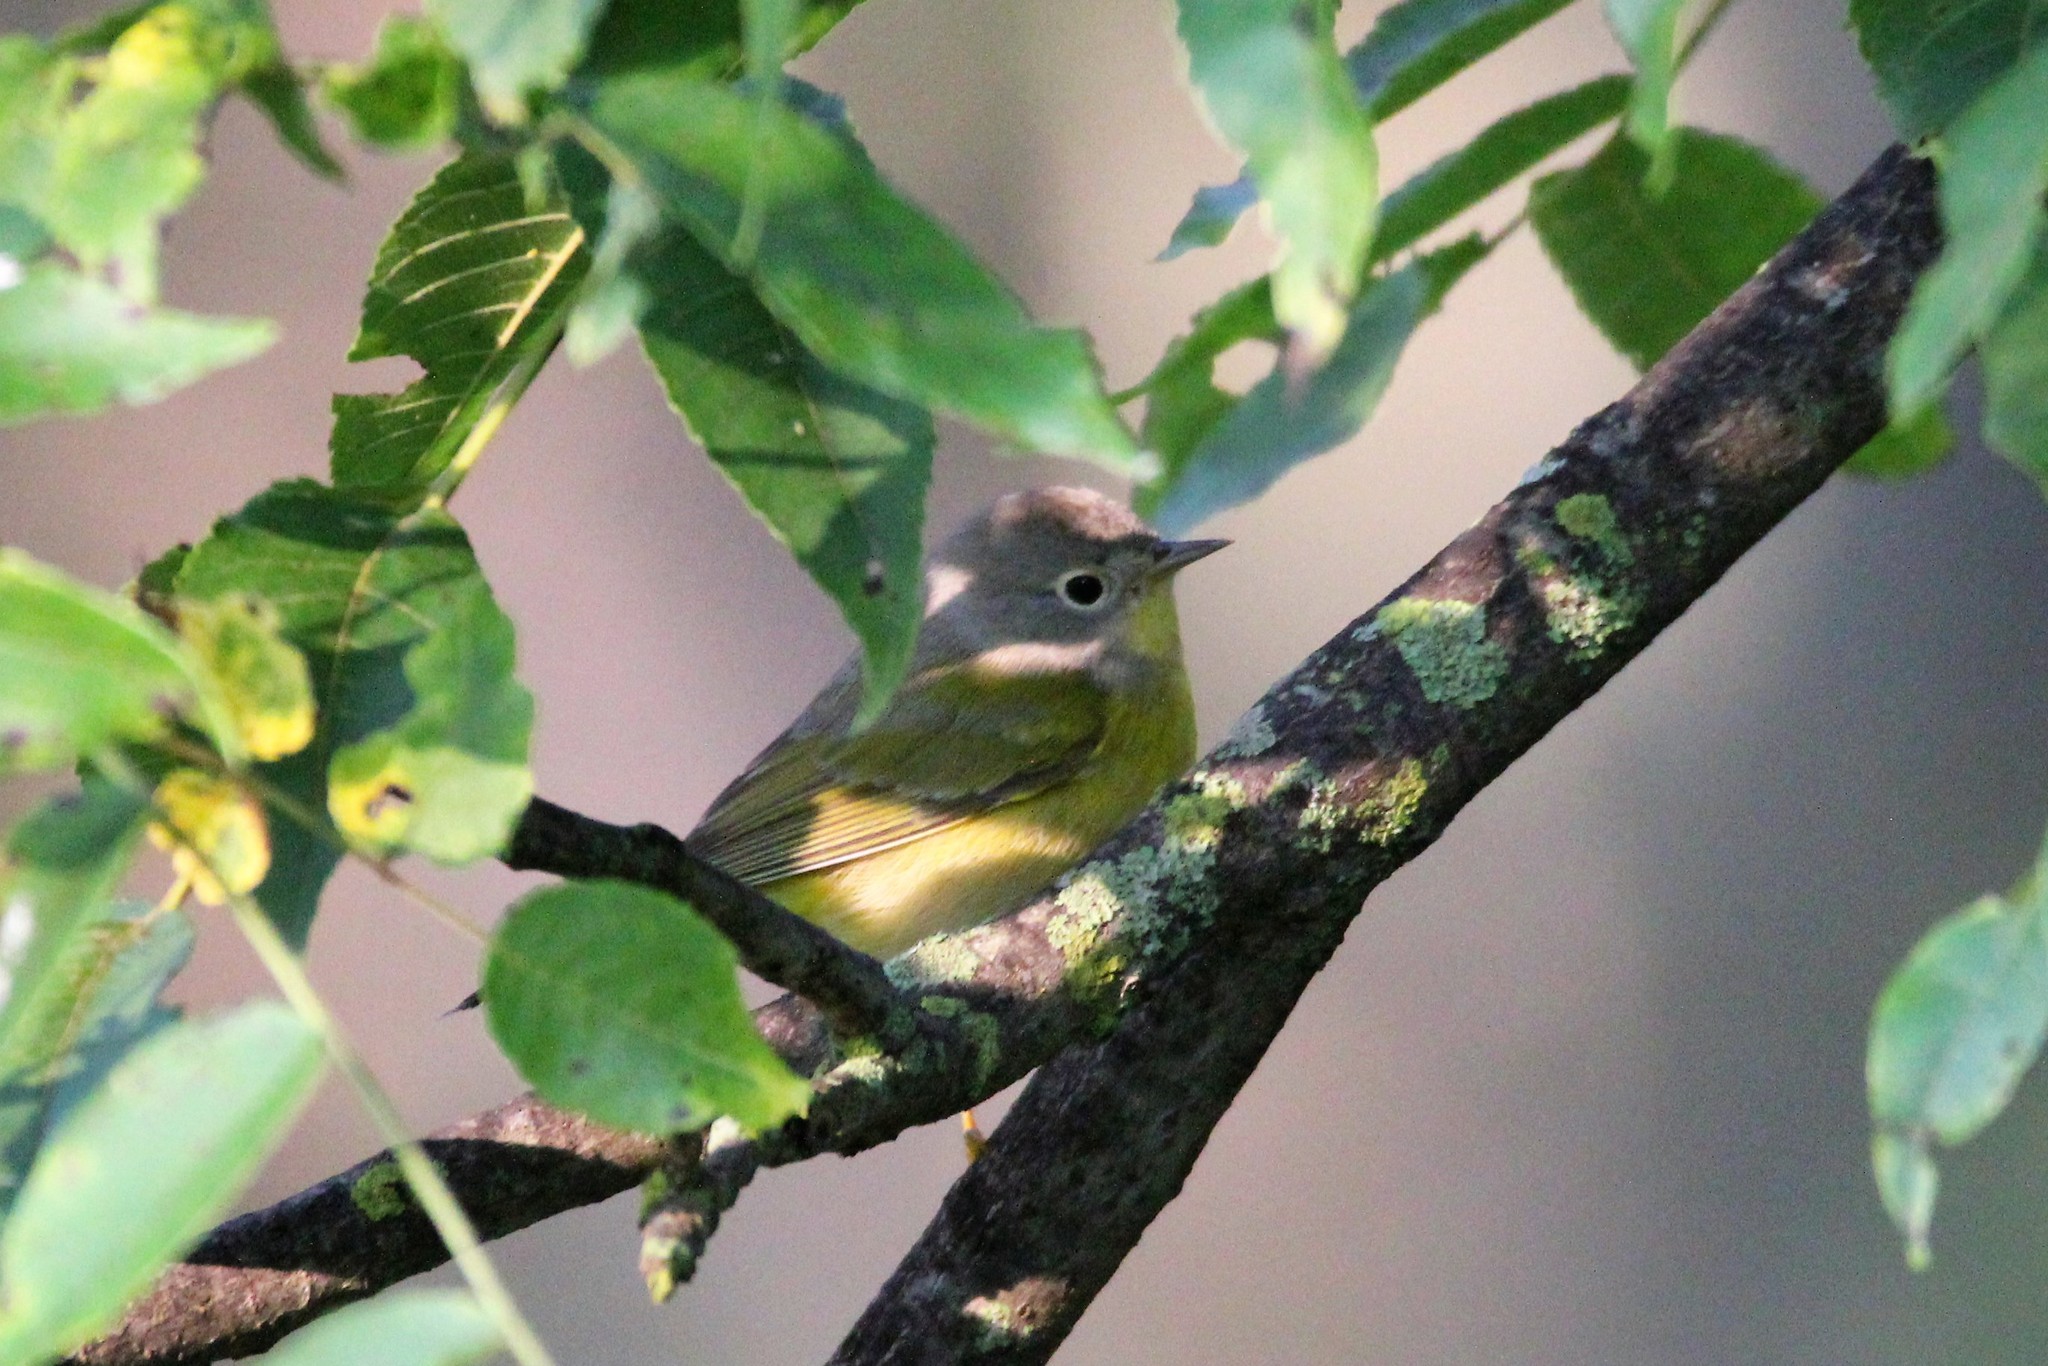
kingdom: Animalia
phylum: Chordata
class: Aves
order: Passeriformes
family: Parulidae
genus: Leiothlypis
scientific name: Leiothlypis ruficapilla
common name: Nashville warbler
